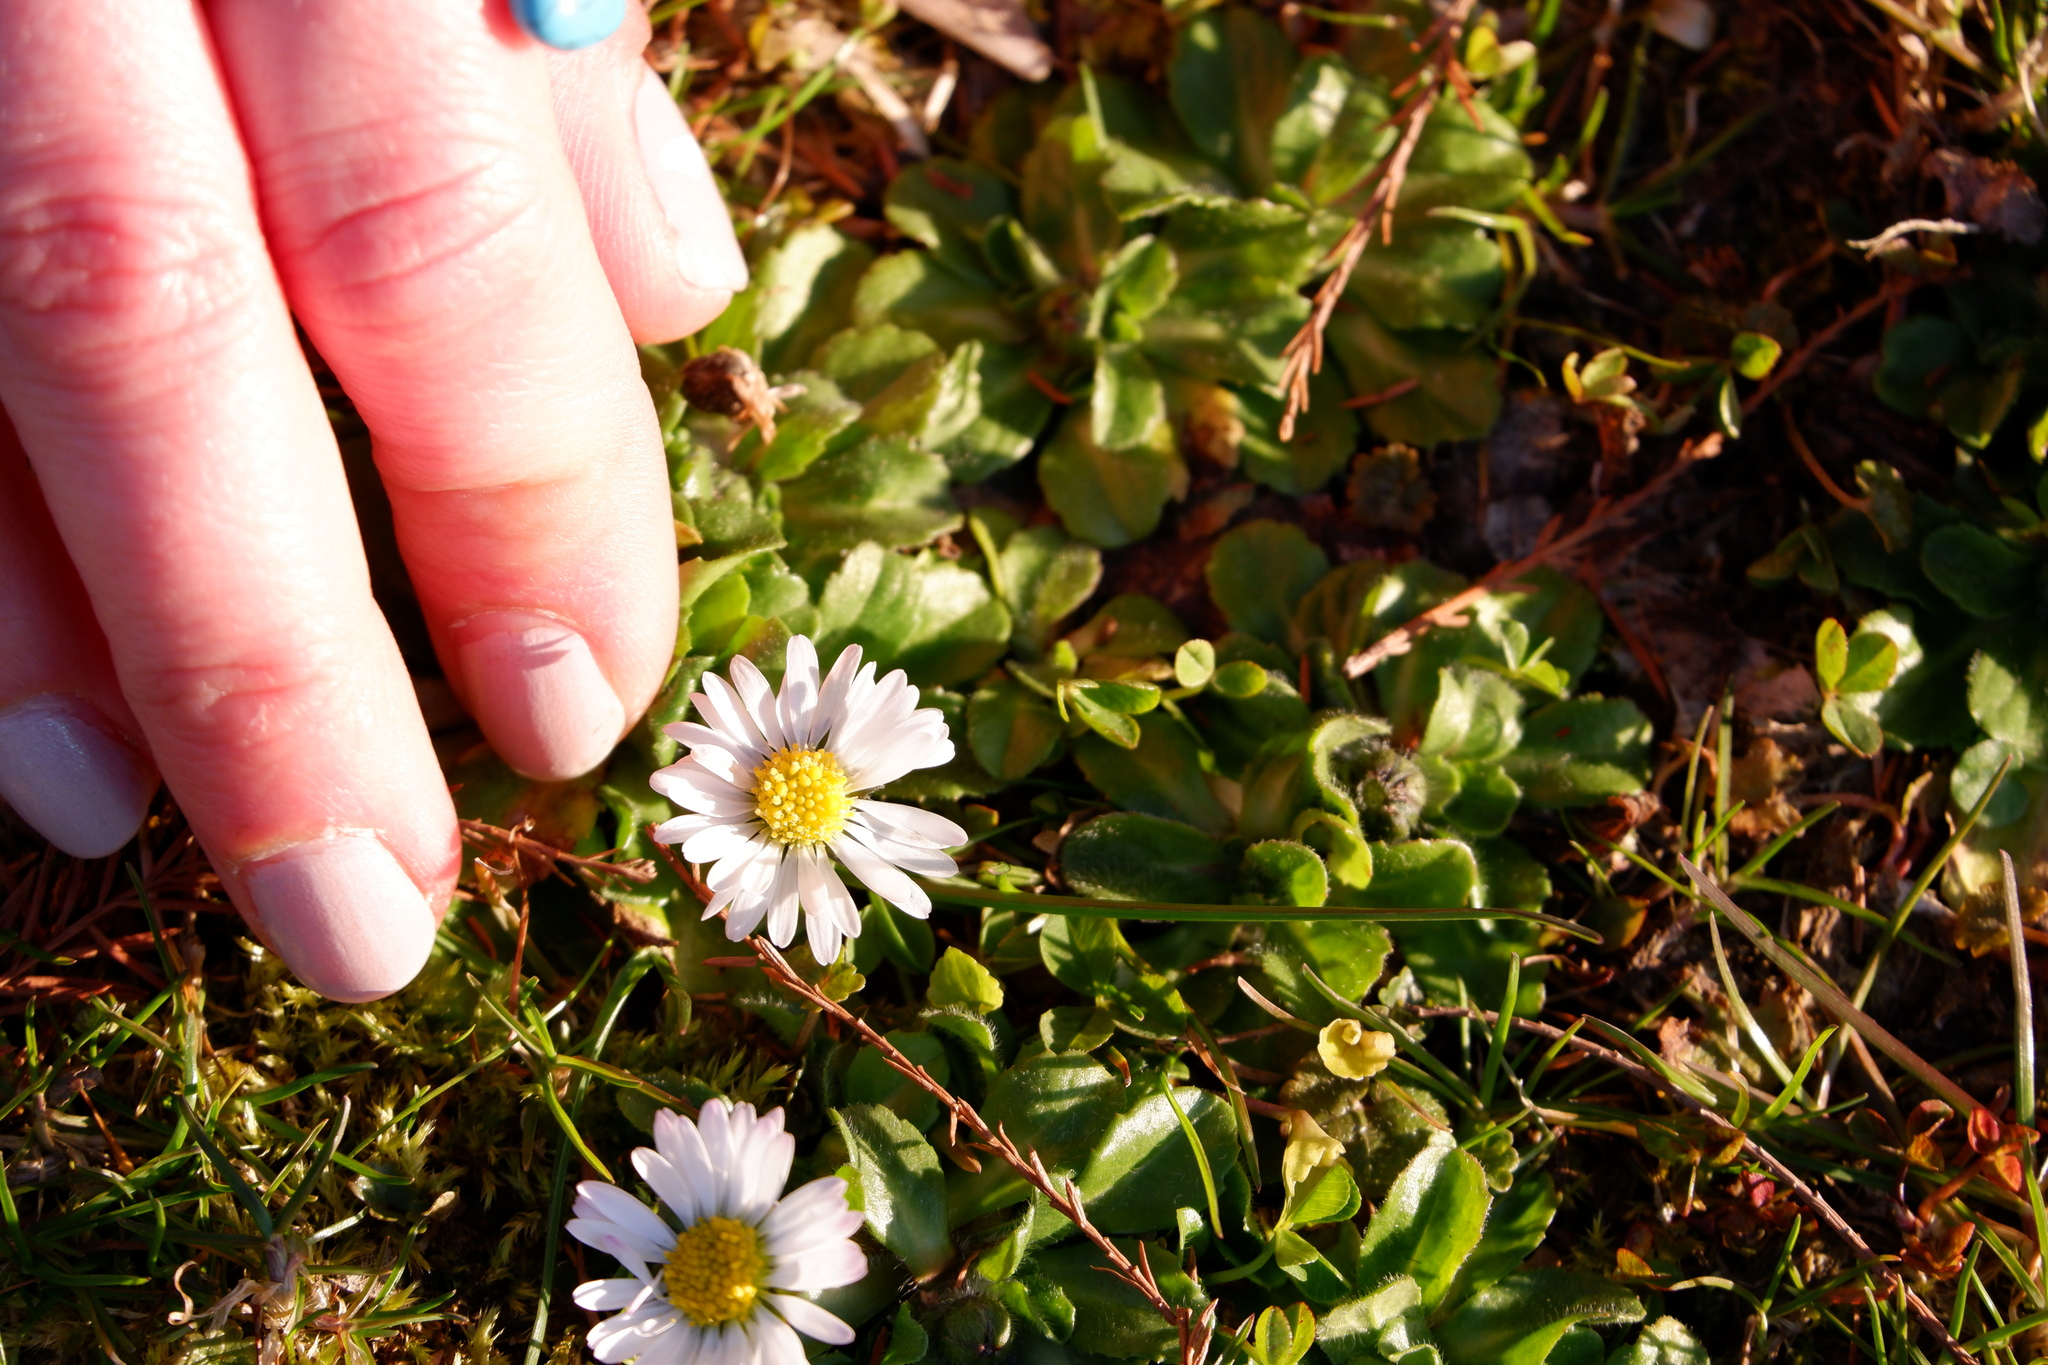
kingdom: Plantae
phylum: Tracheophyta
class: Magnoliopsida
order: Asterales
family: Asteraceae
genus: Bellis
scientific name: Bellis perennis
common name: Lawndaisy
